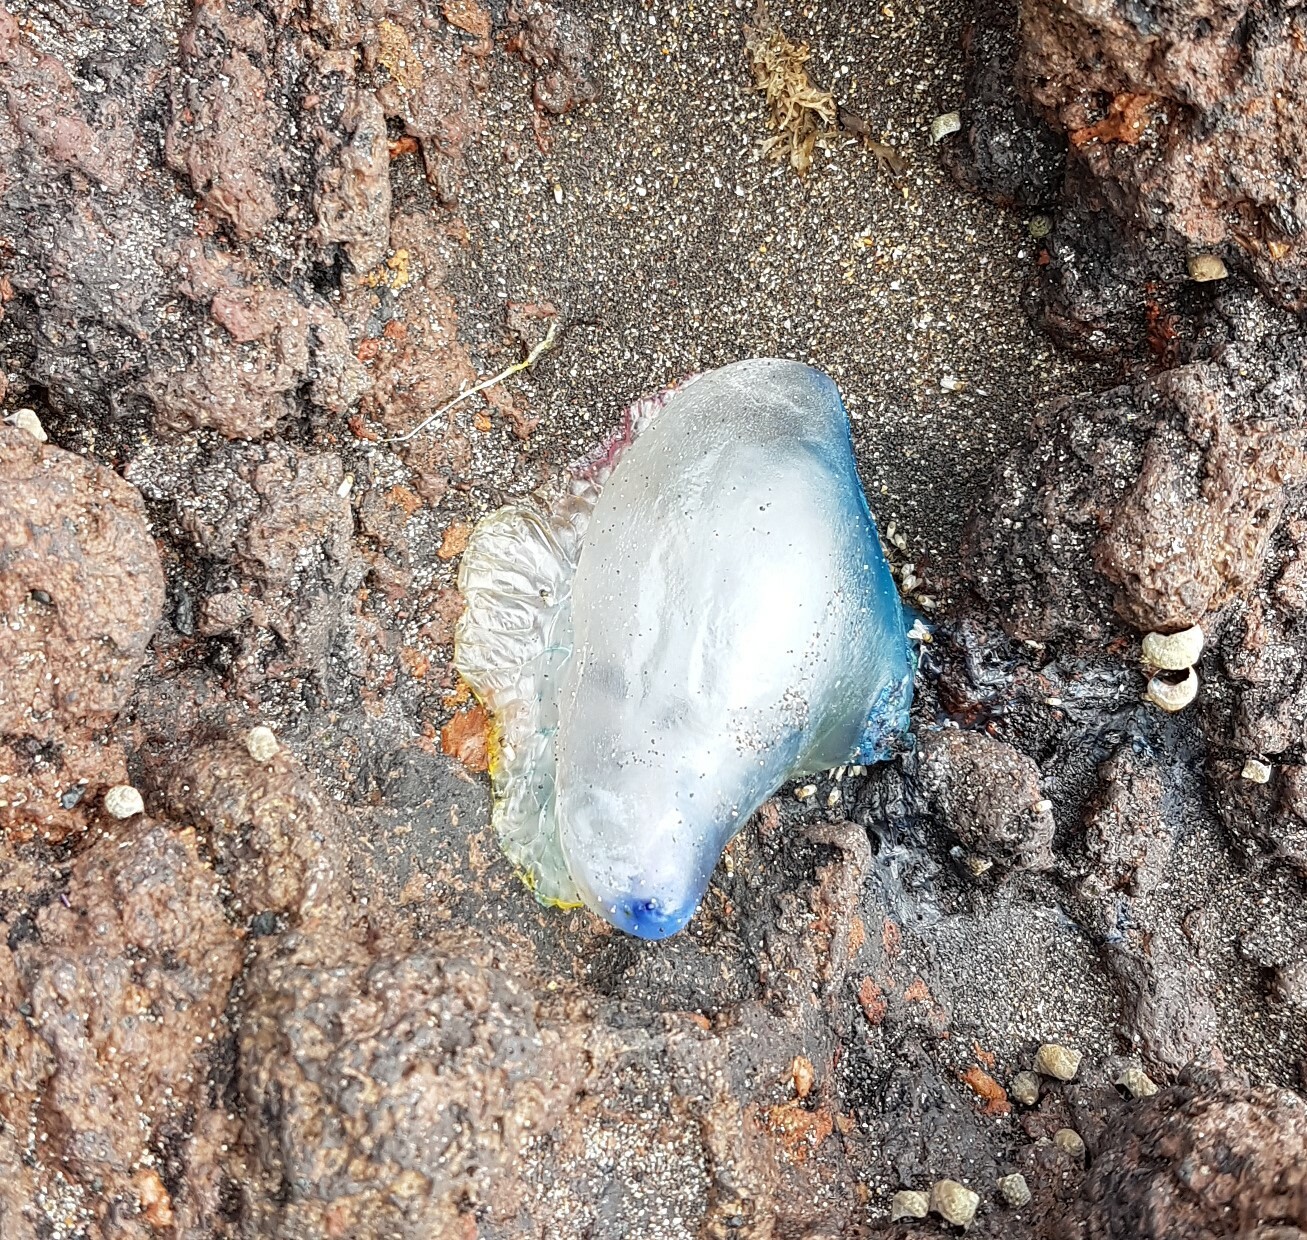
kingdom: Animalia
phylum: Cnidaria
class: Hydrozoa
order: Siphonophorae
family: Physaliidae
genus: Physalia
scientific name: Physalia physalis
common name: Portuguese man-of-war
